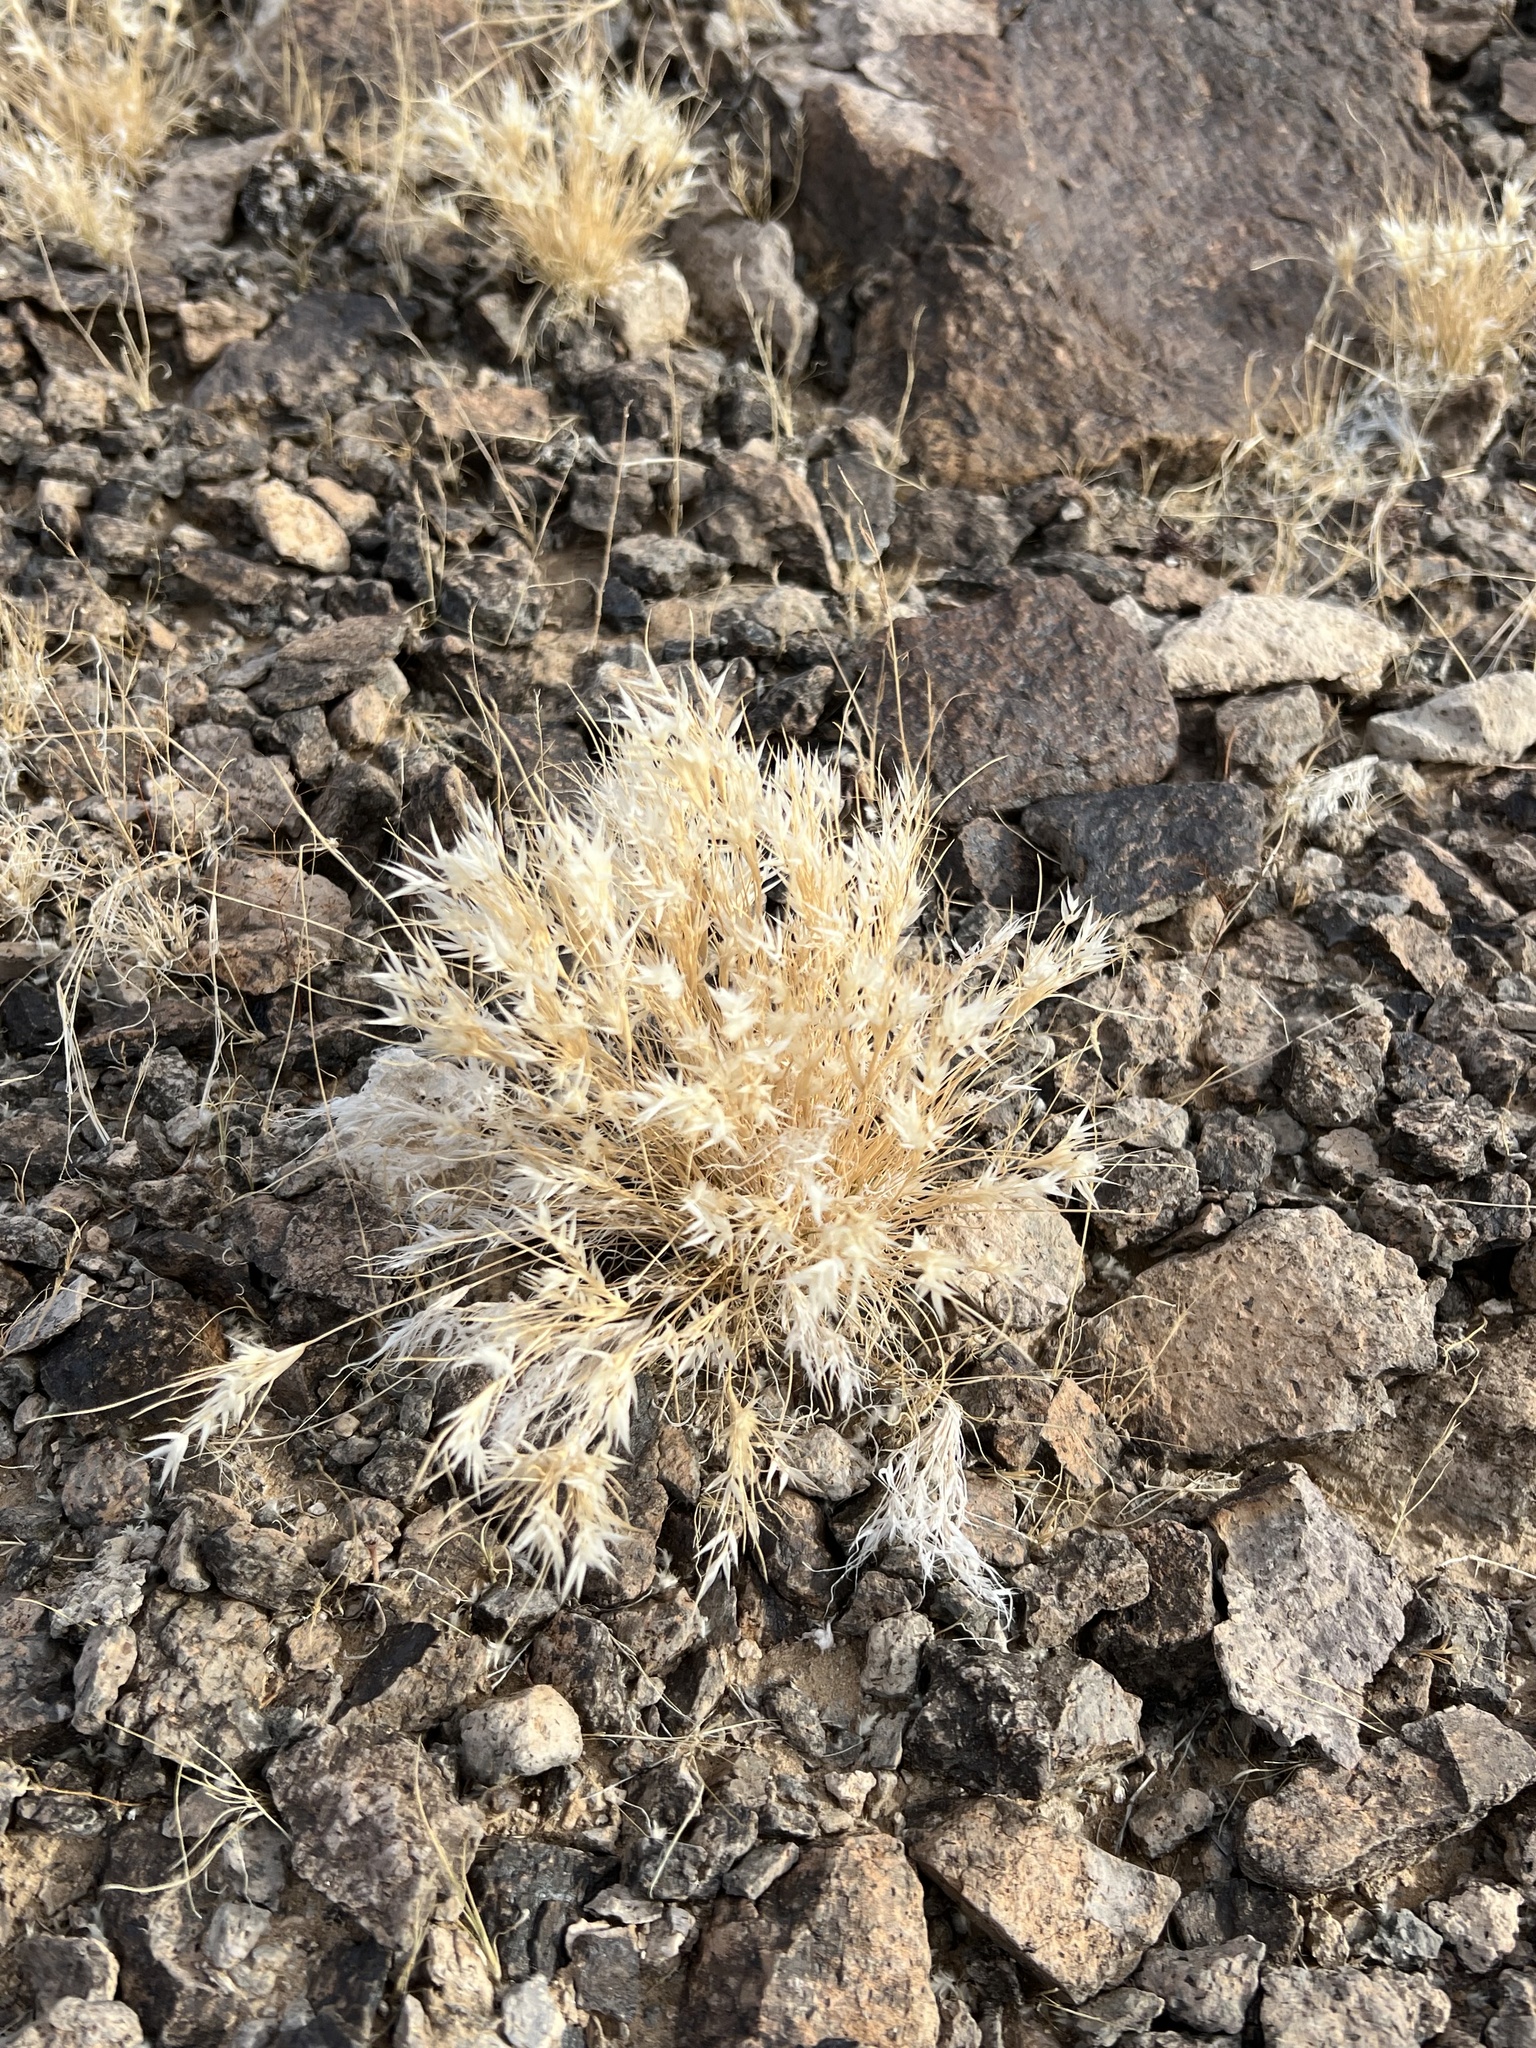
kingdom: Plantae
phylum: Tracheophyta
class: Liliopsida
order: Poales
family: Poaceae
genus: Dasyochloa
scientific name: Dasyochloa pulchella
